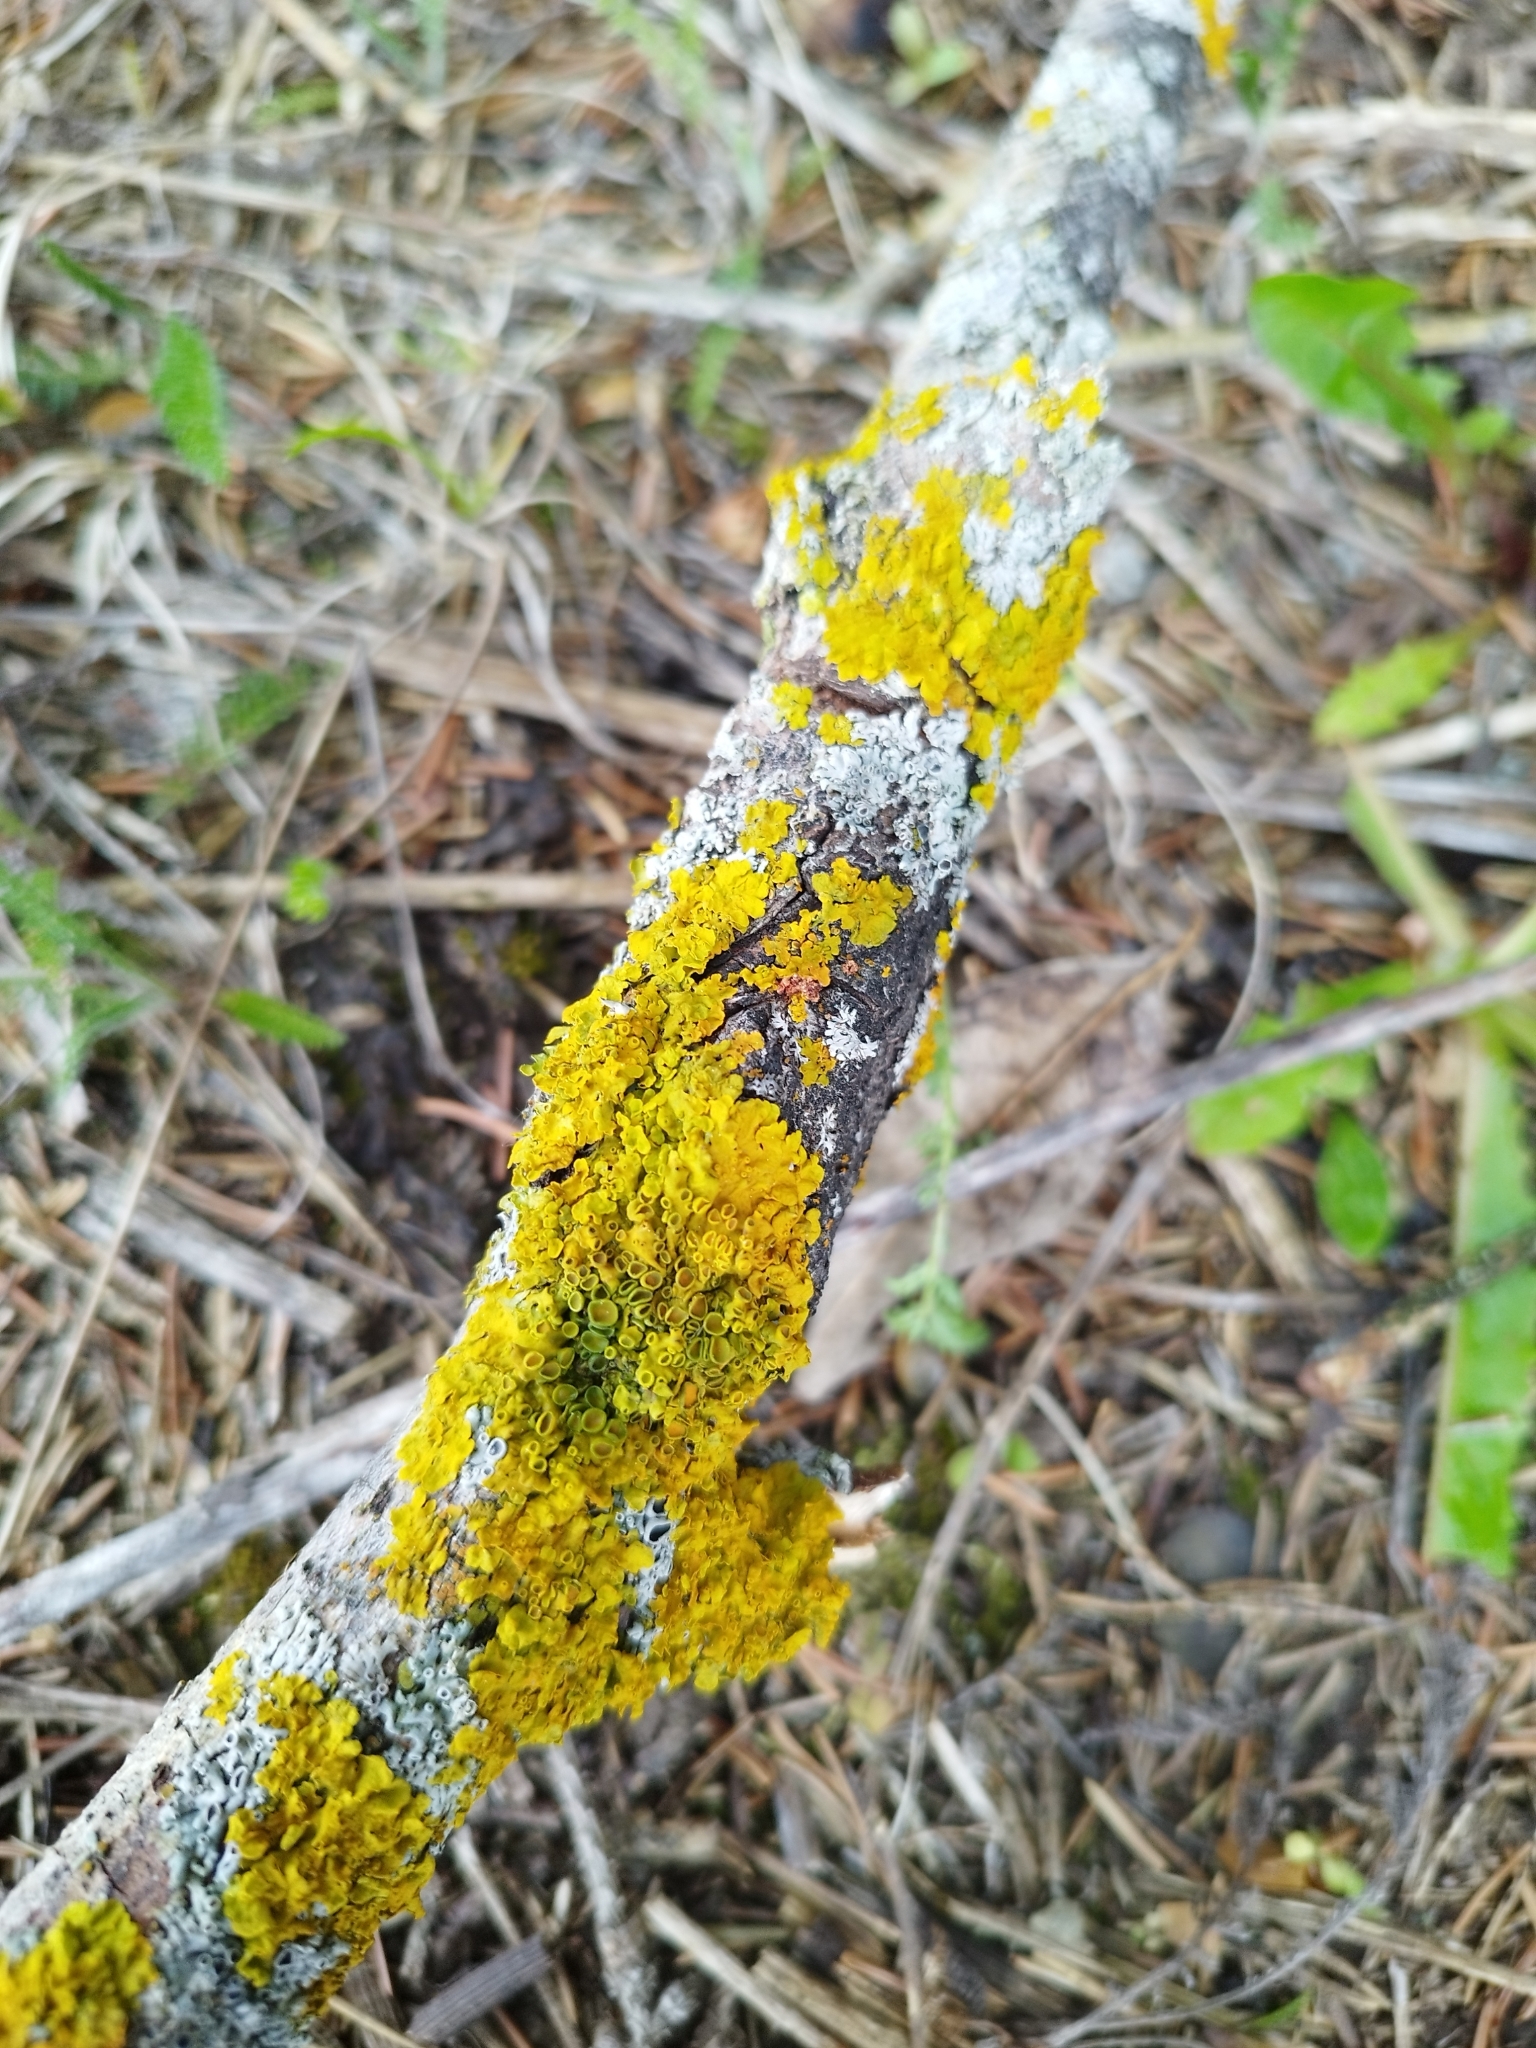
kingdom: Fungi
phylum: Ascomycota
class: Lecanoromycetes
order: Teloschistales
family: Teloschistaceae
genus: Xanthoria
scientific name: Xanthoria parietina
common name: Common orange lichen
